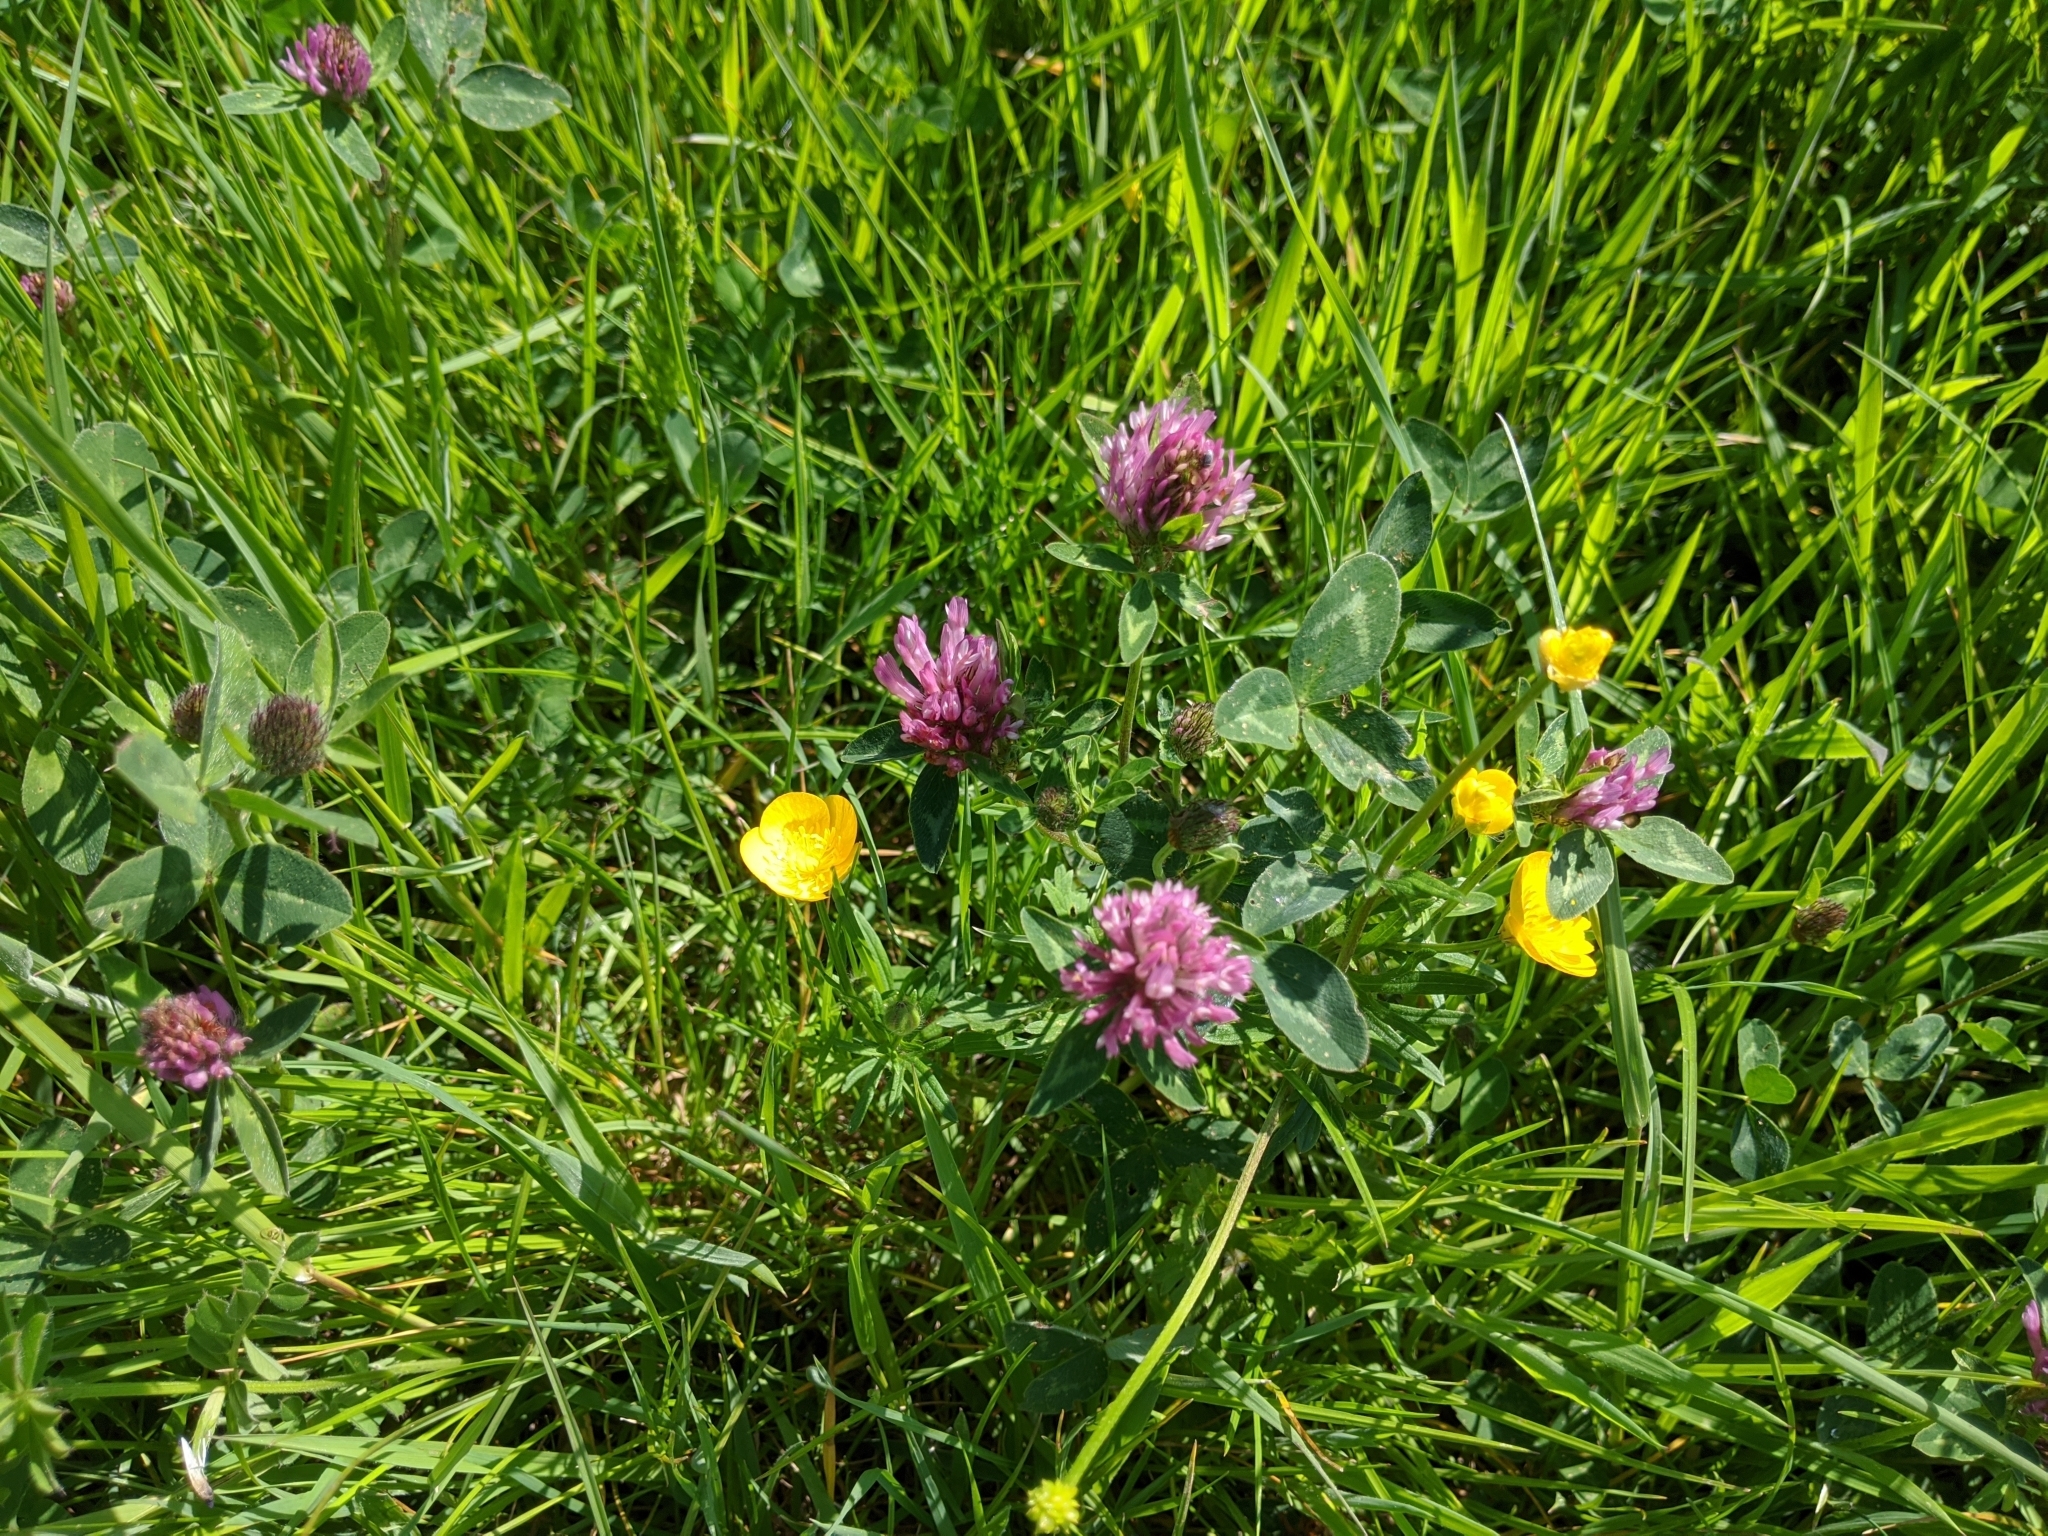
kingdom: Plantae
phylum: Tracheophyta
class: Magnoliopsida
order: Fabales
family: Fabaceae
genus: Trifolium
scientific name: Trifolium pratense
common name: Red clover
